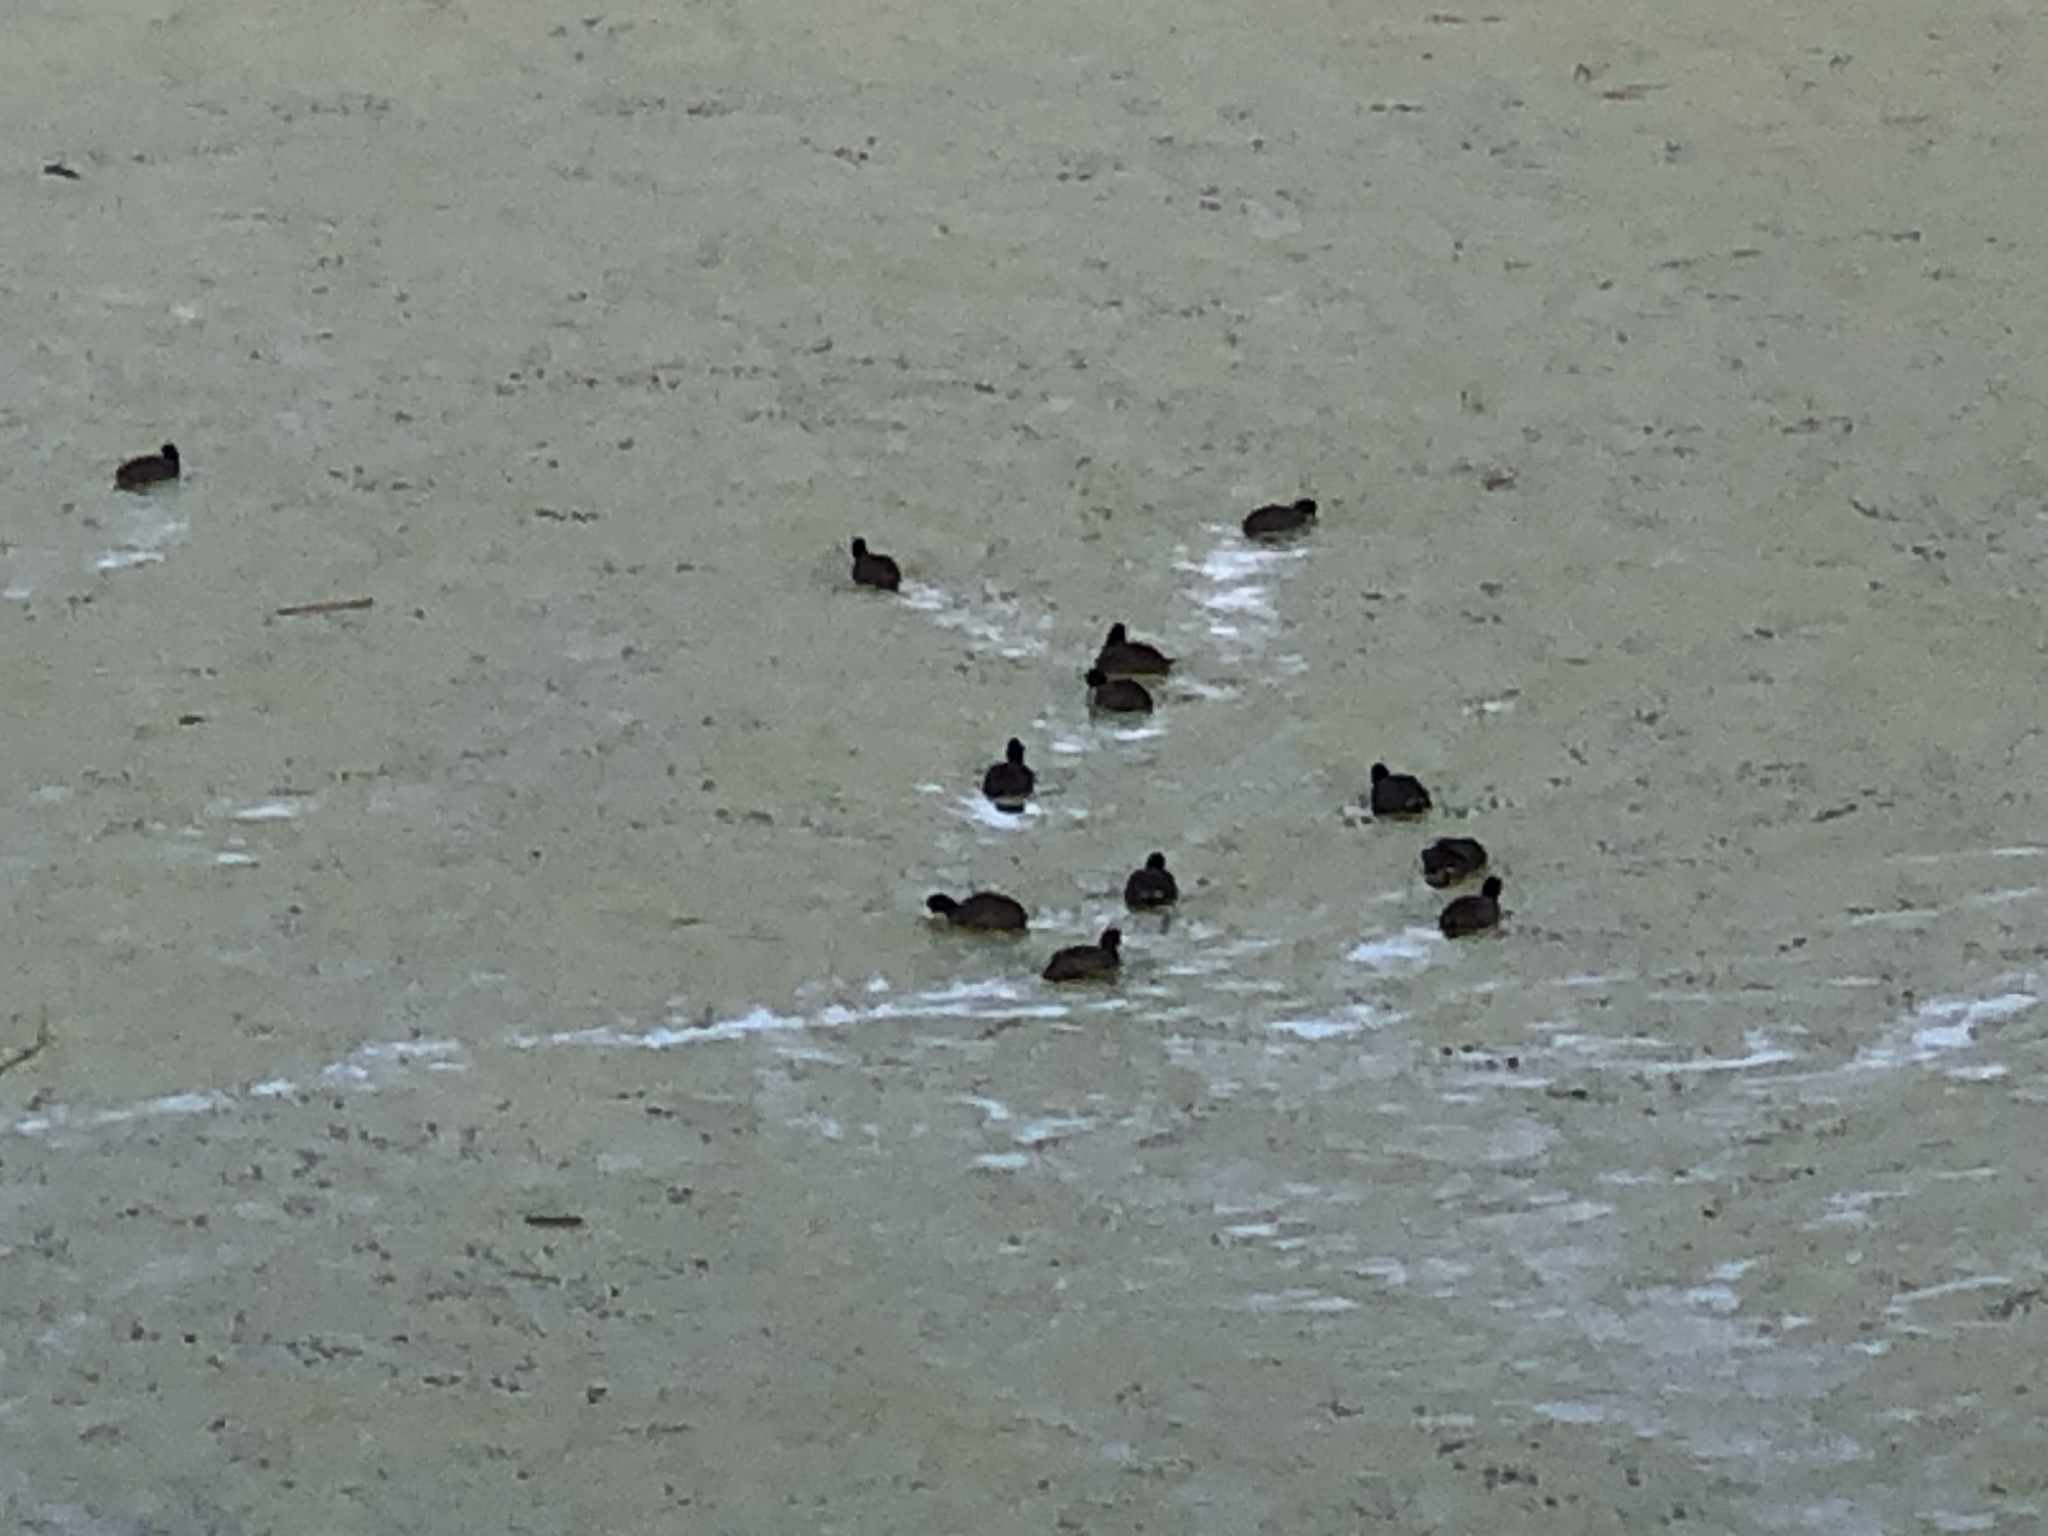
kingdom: Animalia
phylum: Chordata
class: Aves
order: Gruiformes
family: Rallidae
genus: Fulica
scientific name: Fulica americana
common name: American coot
